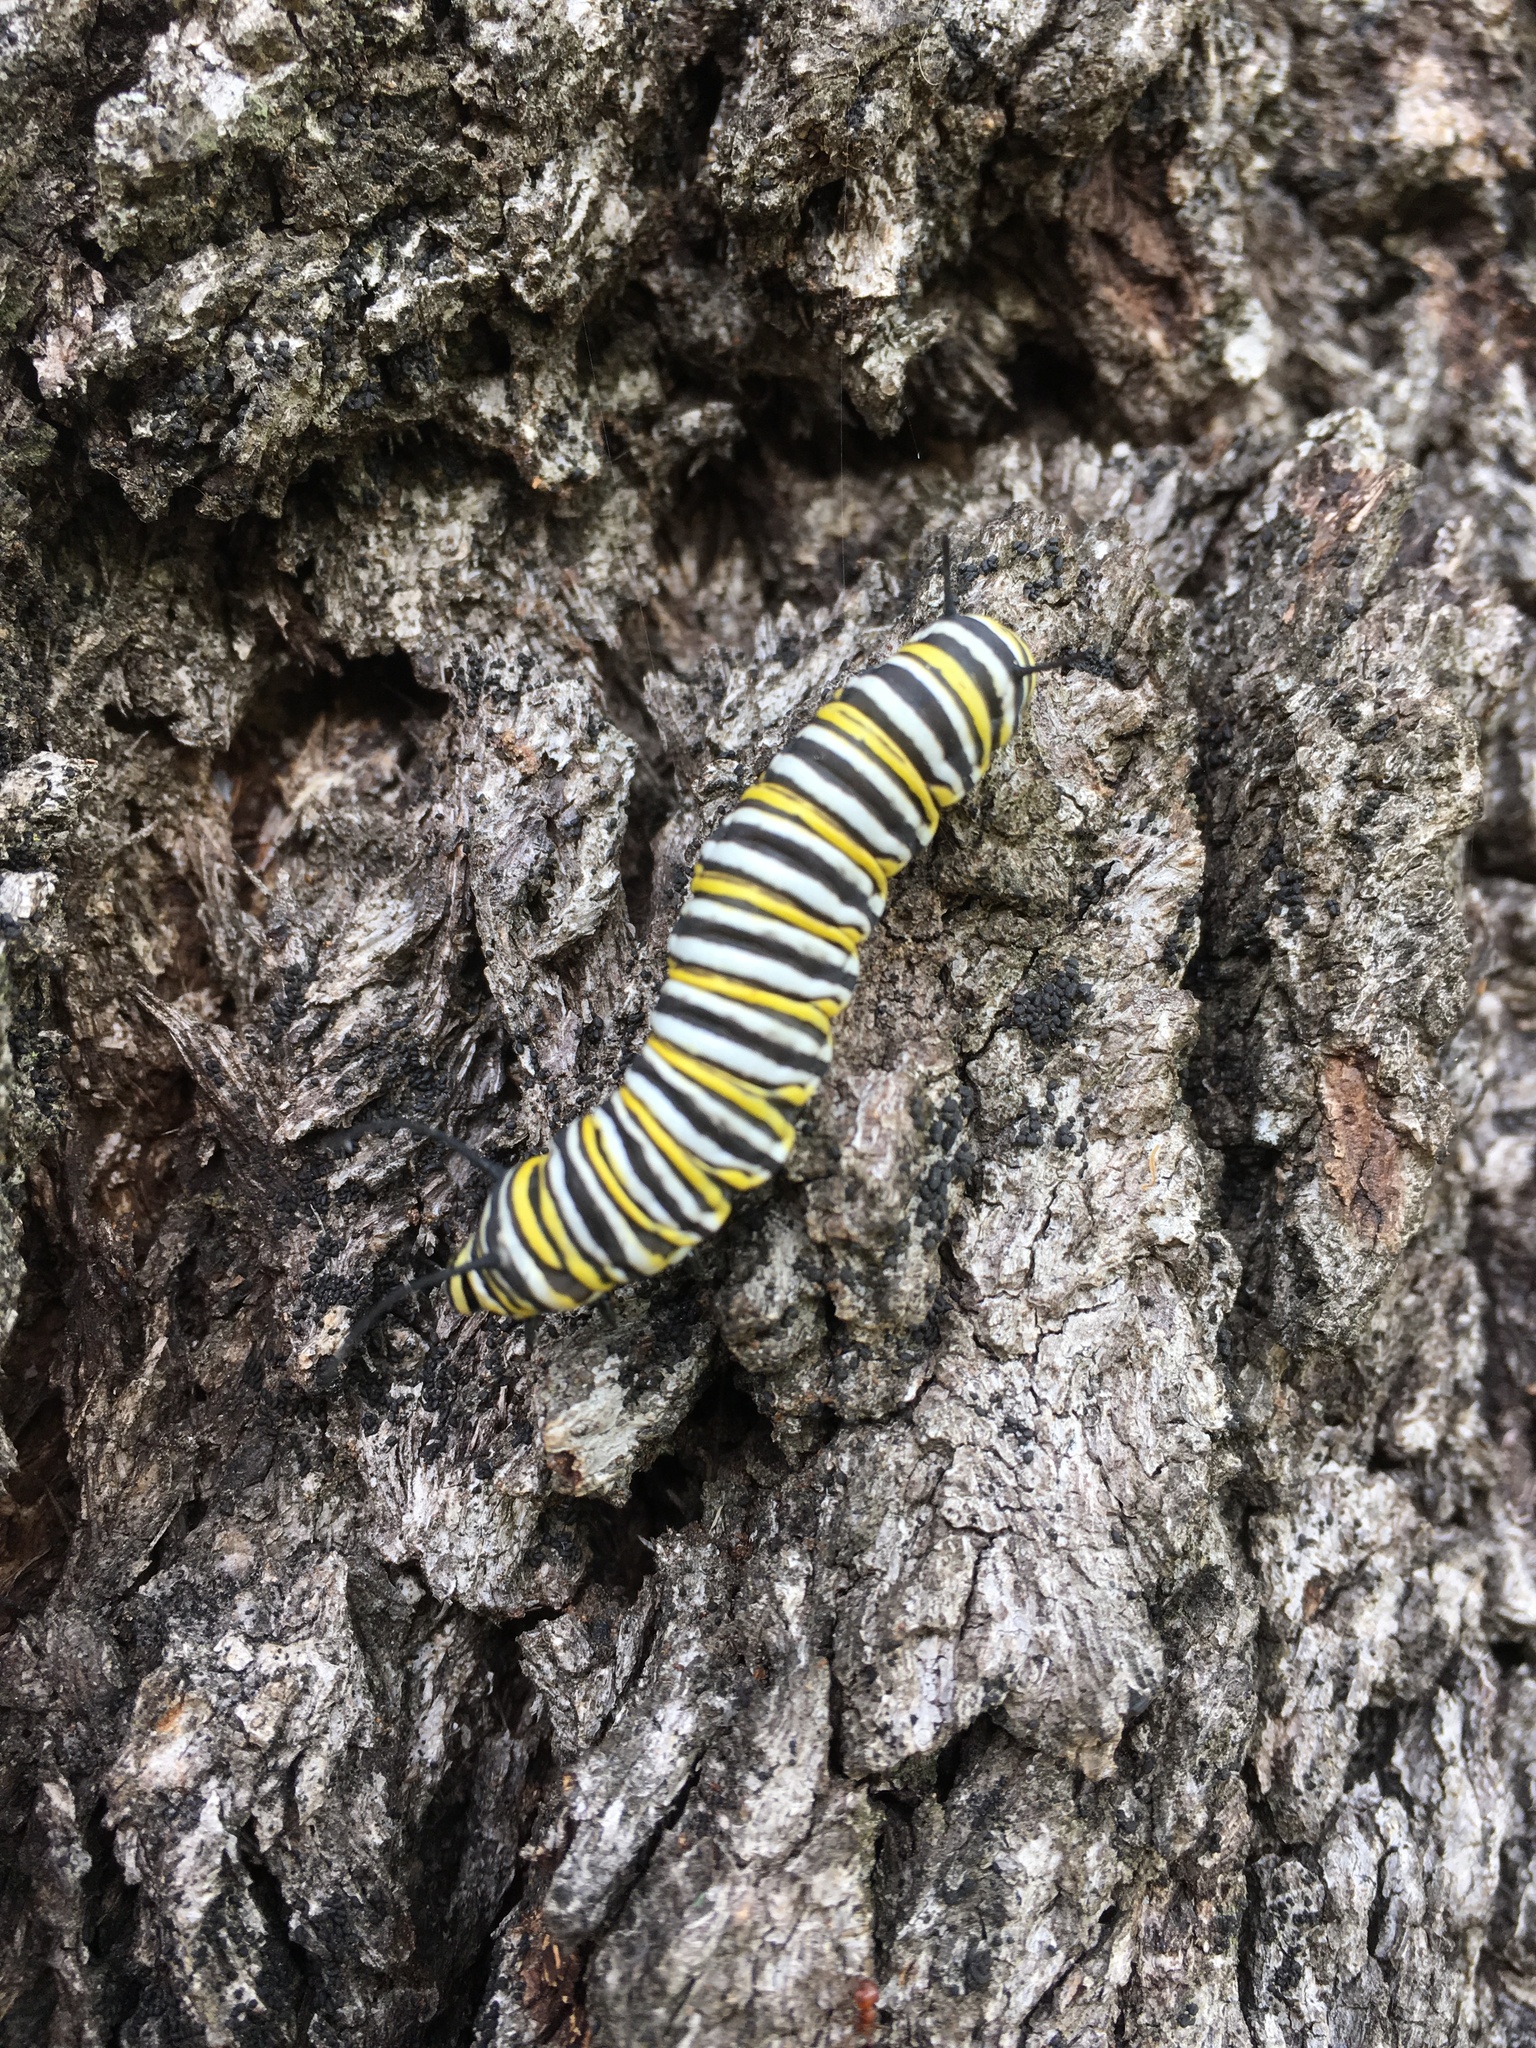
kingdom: Animalia
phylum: Arthropoda
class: Insecta
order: Lepidoptera
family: Nymphalidae
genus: Danaus
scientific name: Danaus plexippus
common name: Monarch
